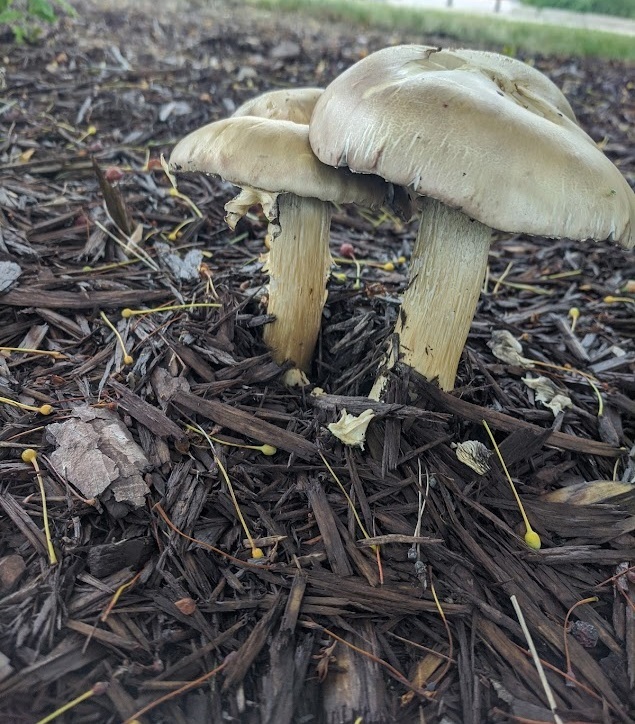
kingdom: Fungi
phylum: Basidiomycota
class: Agaricomycetes
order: Agaricales
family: Strophariaceae
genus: Stropharia
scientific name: Stropharia rugosoannulata
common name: Wine roundhead
